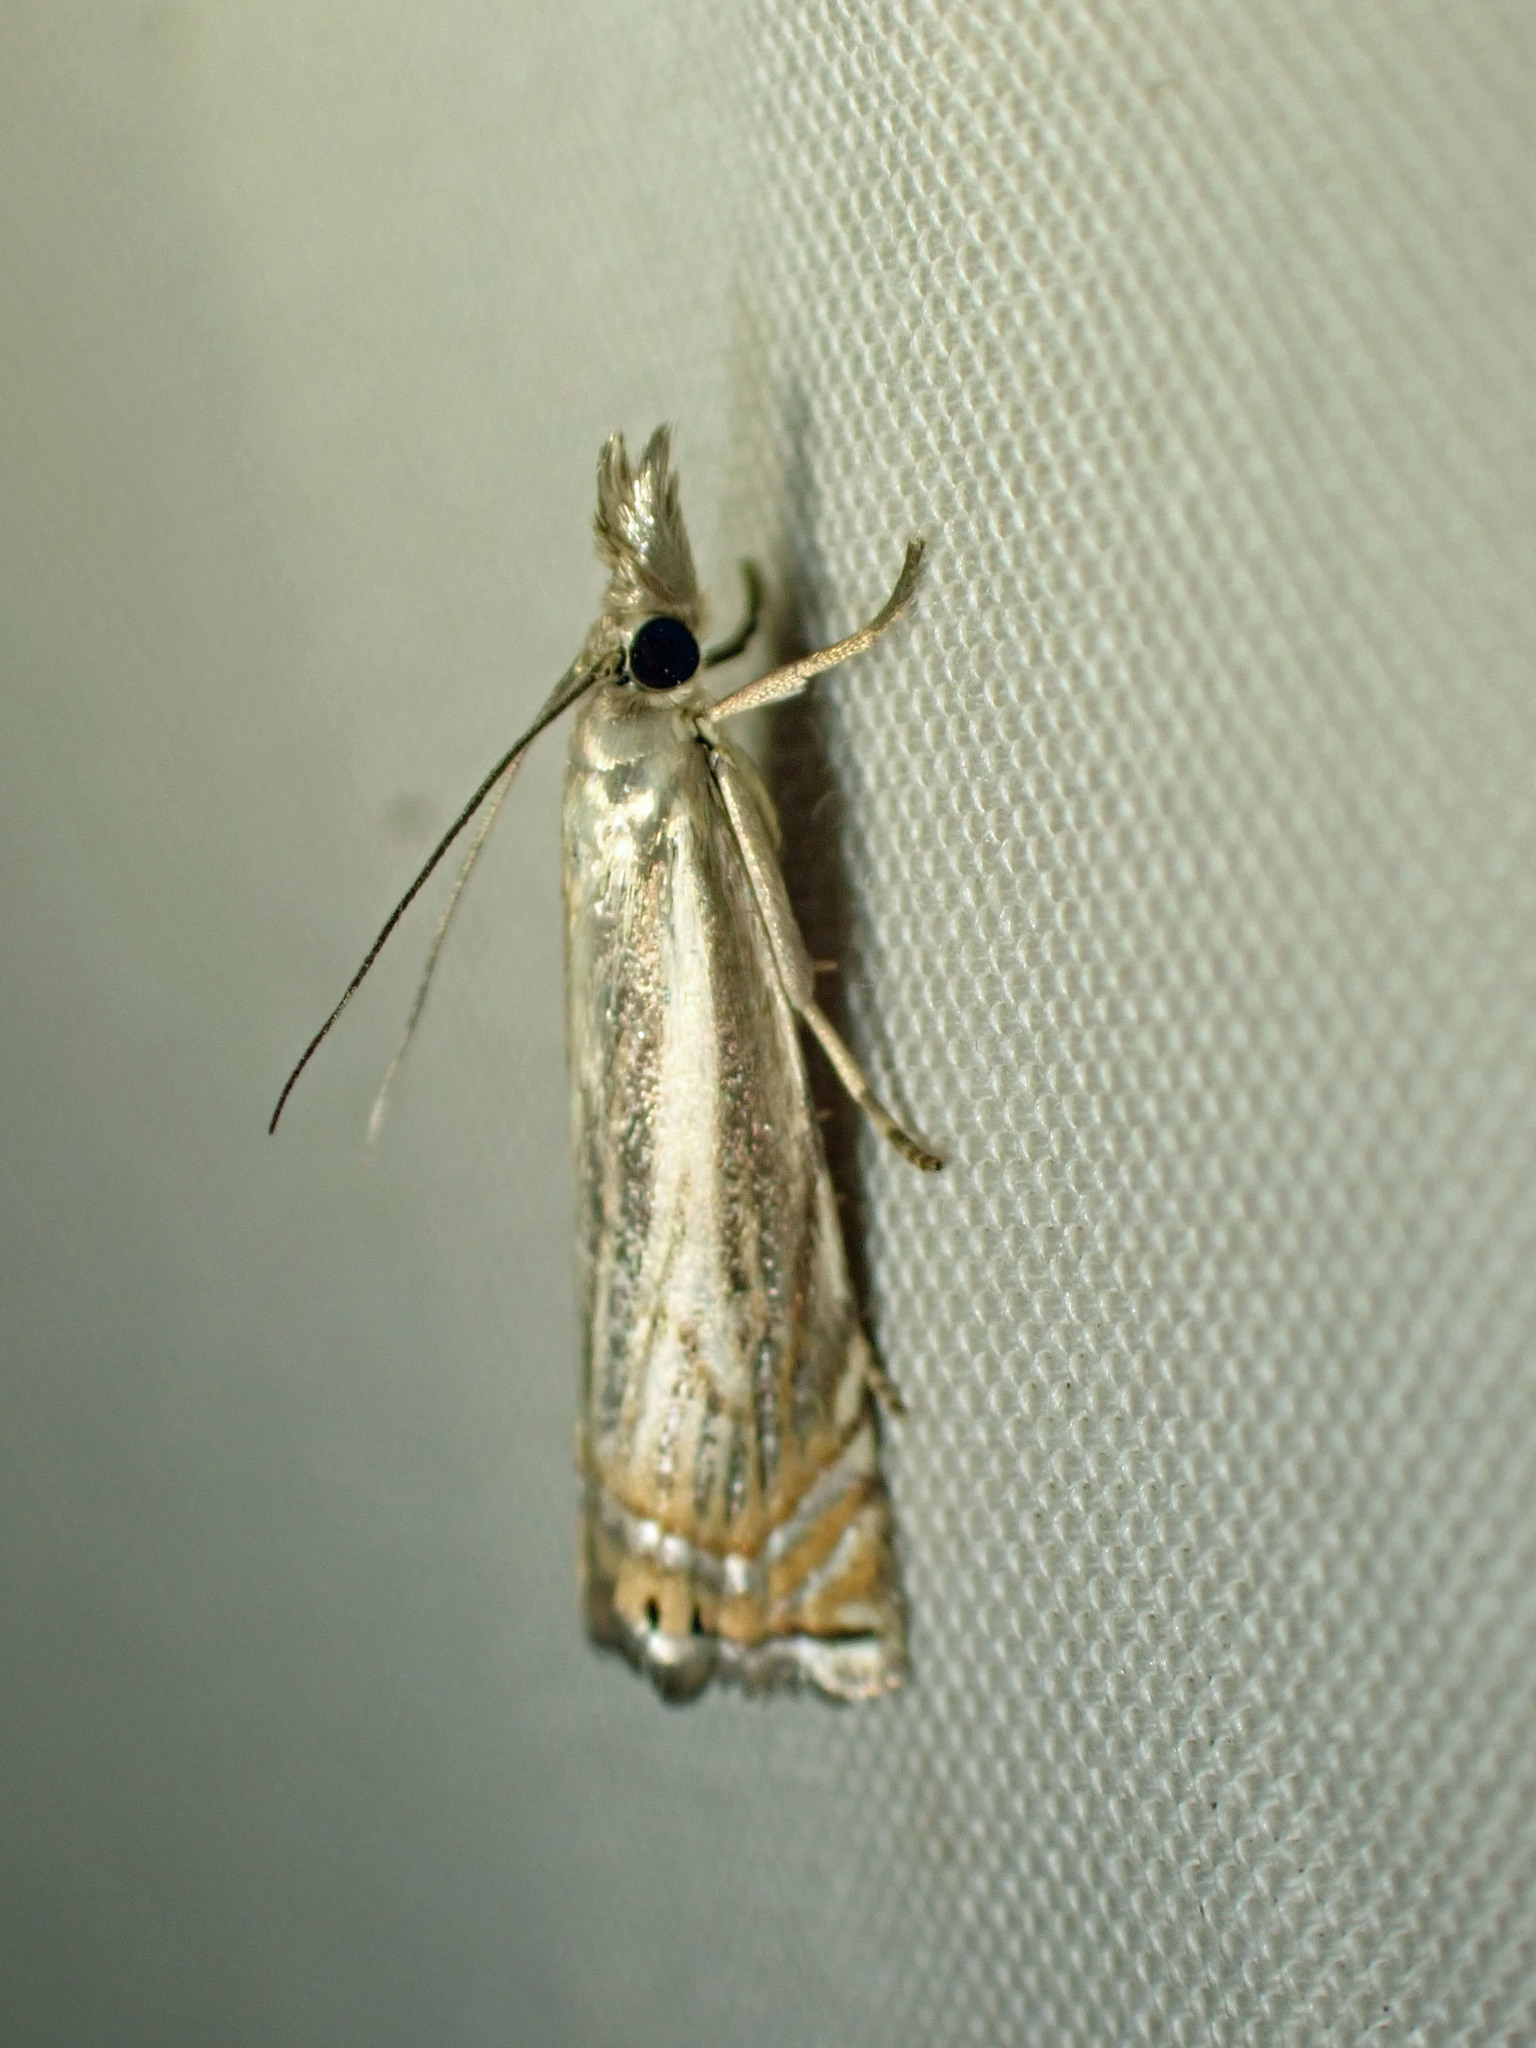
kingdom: Animalia
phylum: Arthropoda
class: Insecta
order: Lepidoptera
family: Crambidae
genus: Chrysoteuchia
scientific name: Chrysoteuchia topiarius
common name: Topiary grass-veneer
